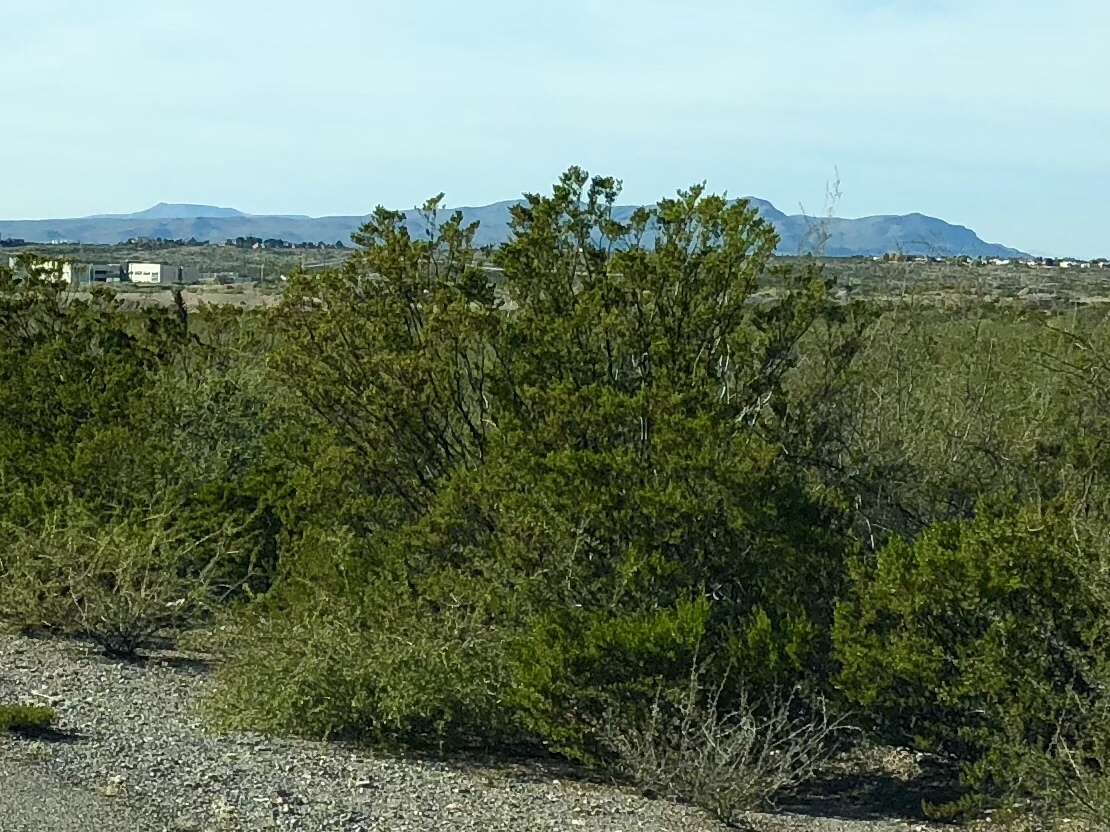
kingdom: Plantae
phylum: Tracheophyta
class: Magnoliopsida
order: Zygophyllales
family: Zygophyllaceae
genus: Larrea
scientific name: Larrea tridentata
